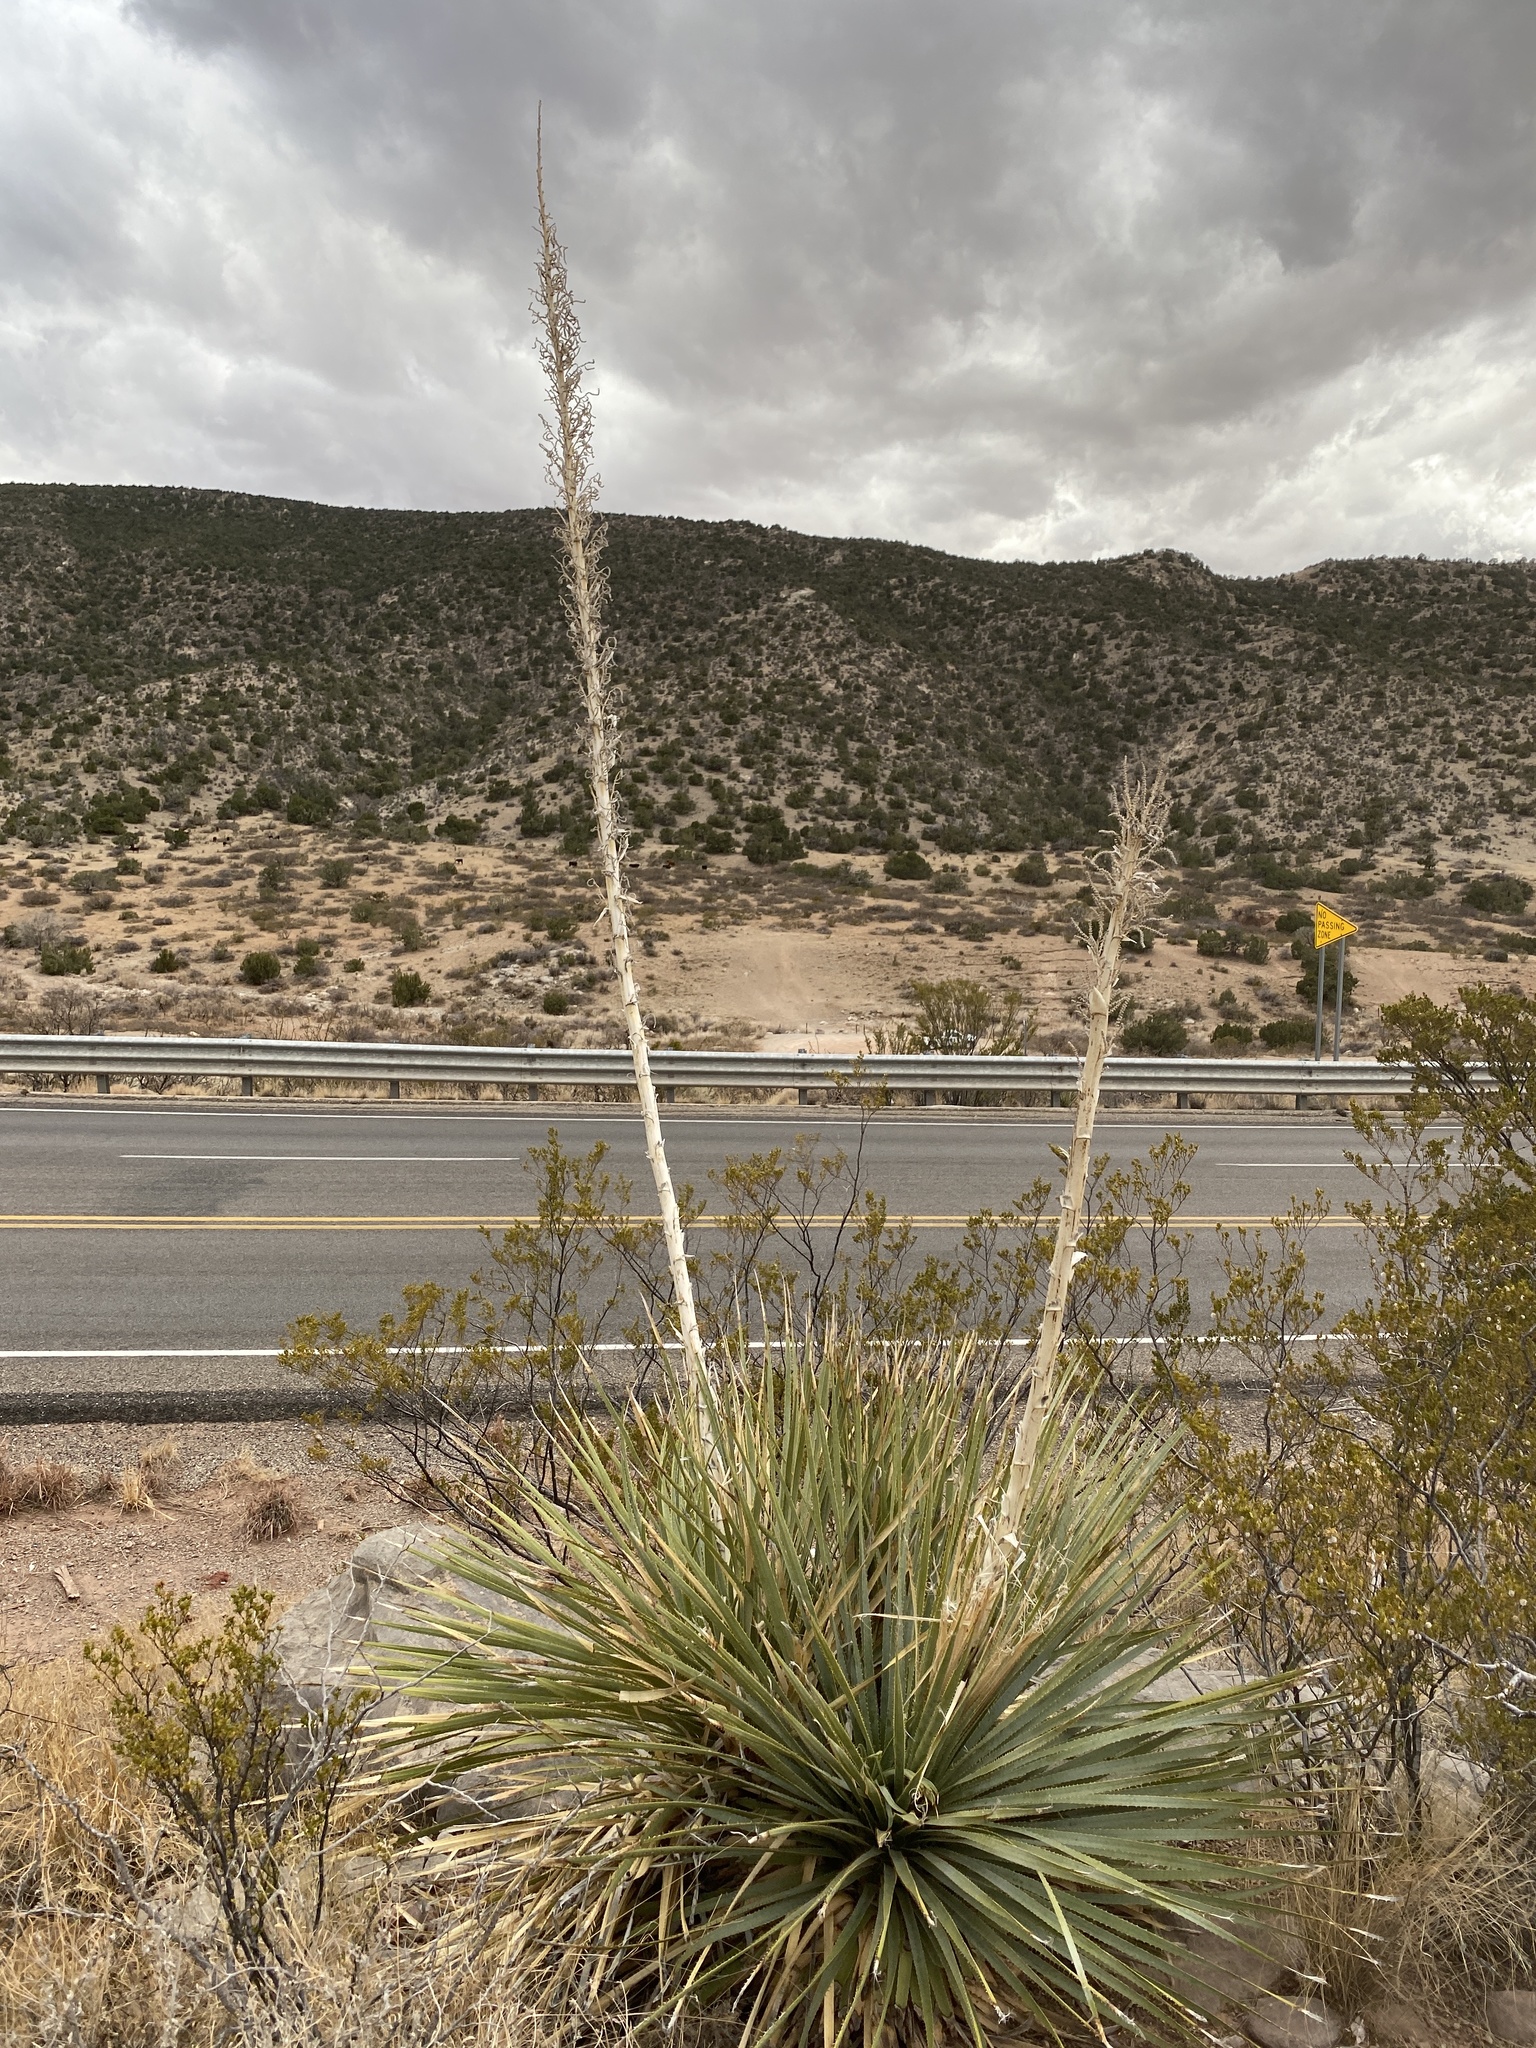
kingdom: Plantae
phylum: Tracheophyta
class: Liliopsida
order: Asparagales
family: Asparagaceae
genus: Dasylirion
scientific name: Dasylirion wheeleri
